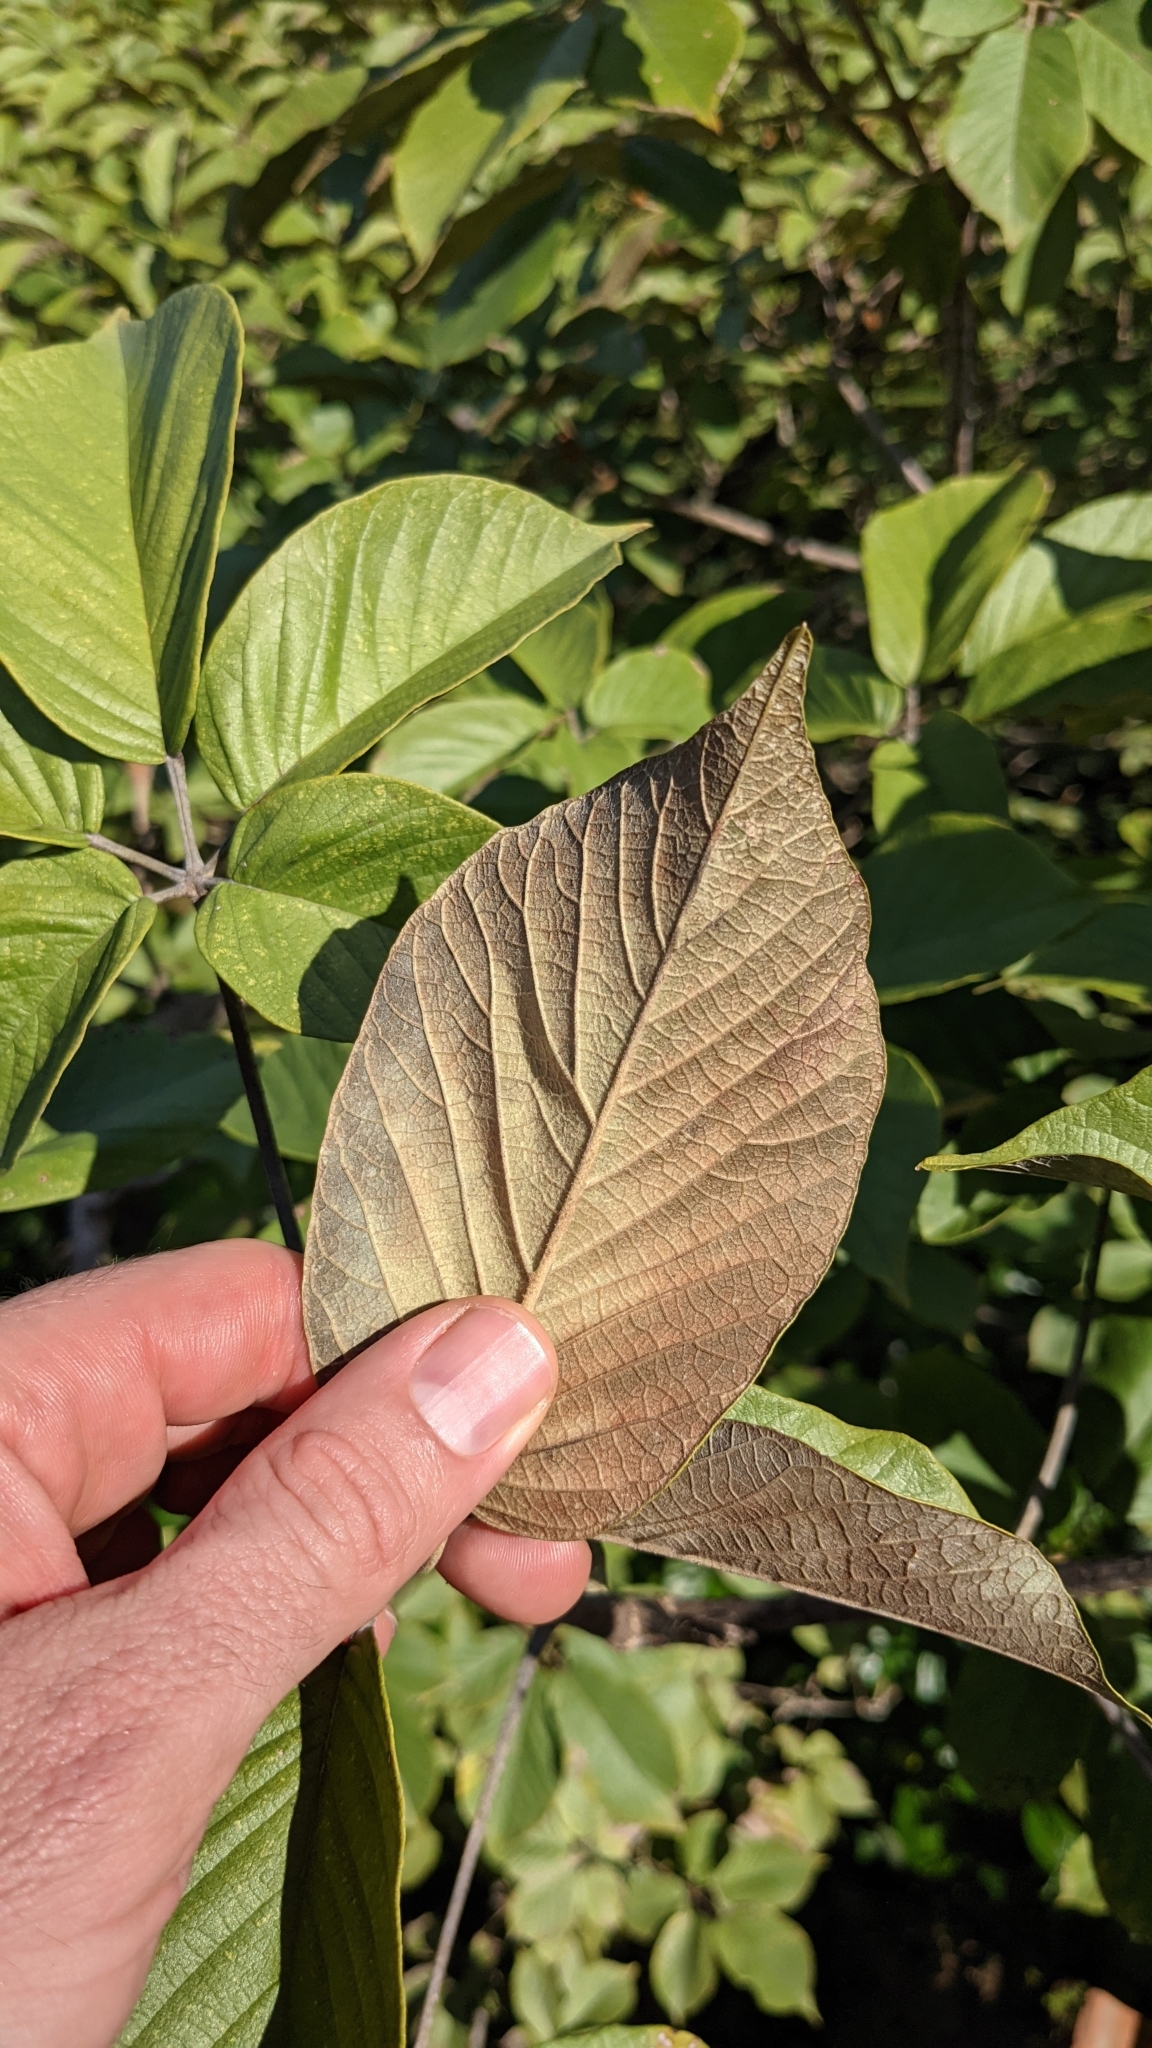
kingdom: Plantae
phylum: Tracheophyta
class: Magnoliopsida
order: Lamiales
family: Bignoniaceae
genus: Handroanthus
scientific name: Handroanthus ochraceus
